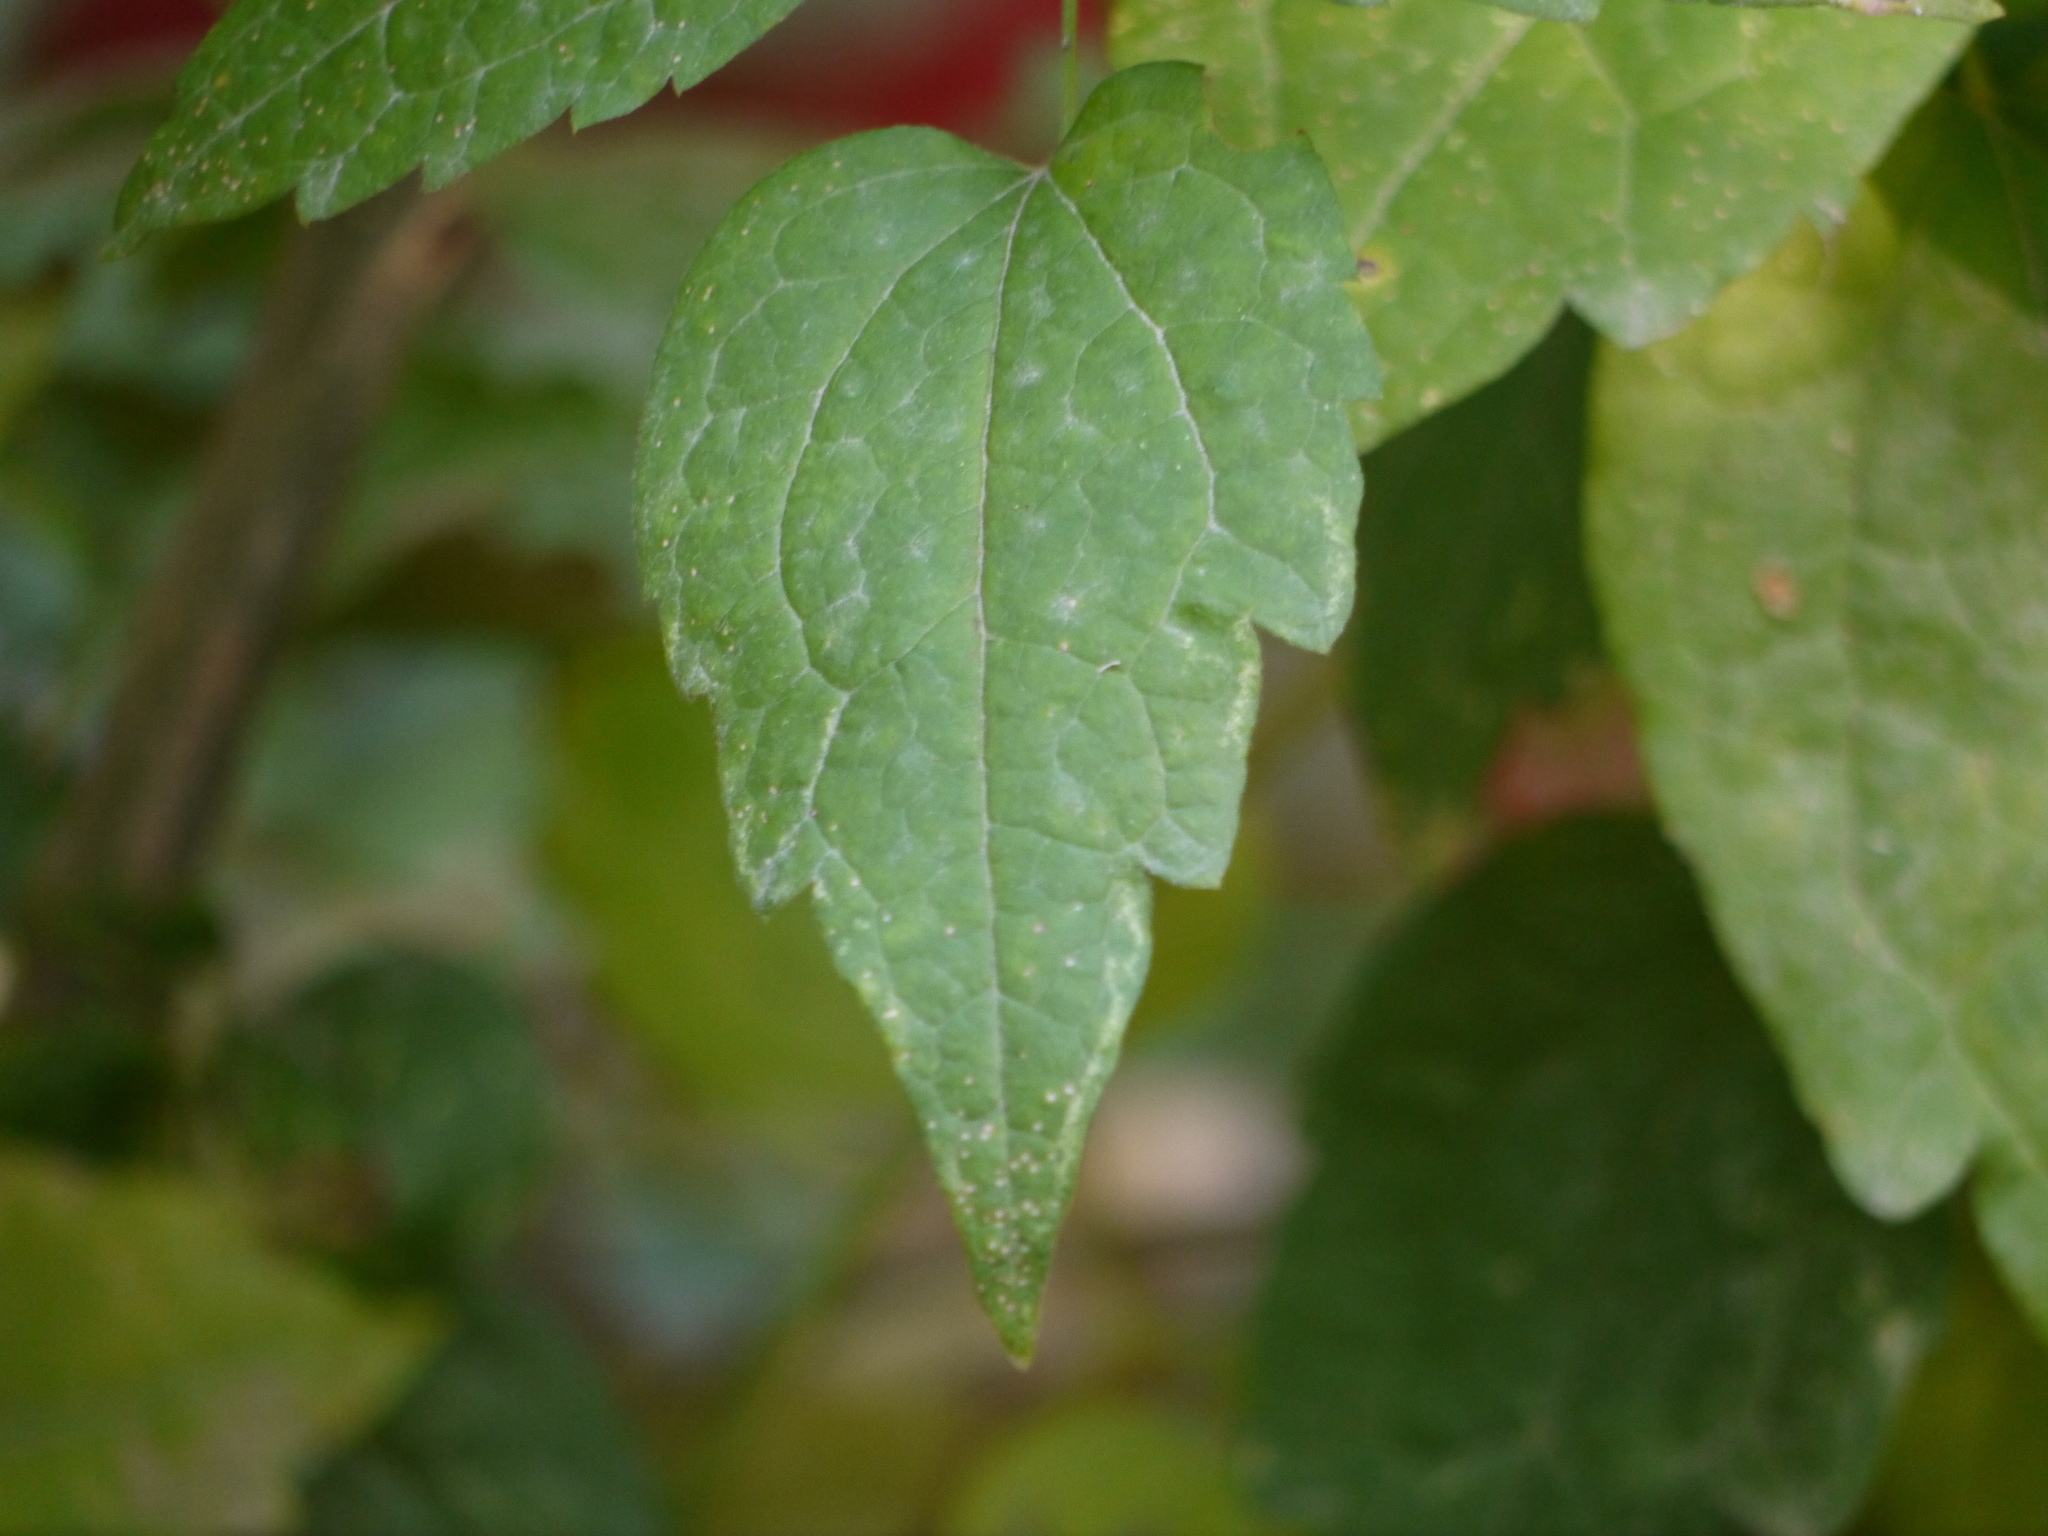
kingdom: Plantae
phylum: Tracheophyta
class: Magnoliopsida
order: Ranunculales
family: Ranunculaceae
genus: Clematis
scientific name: Clematis vitalba
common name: Evergreen clematis
